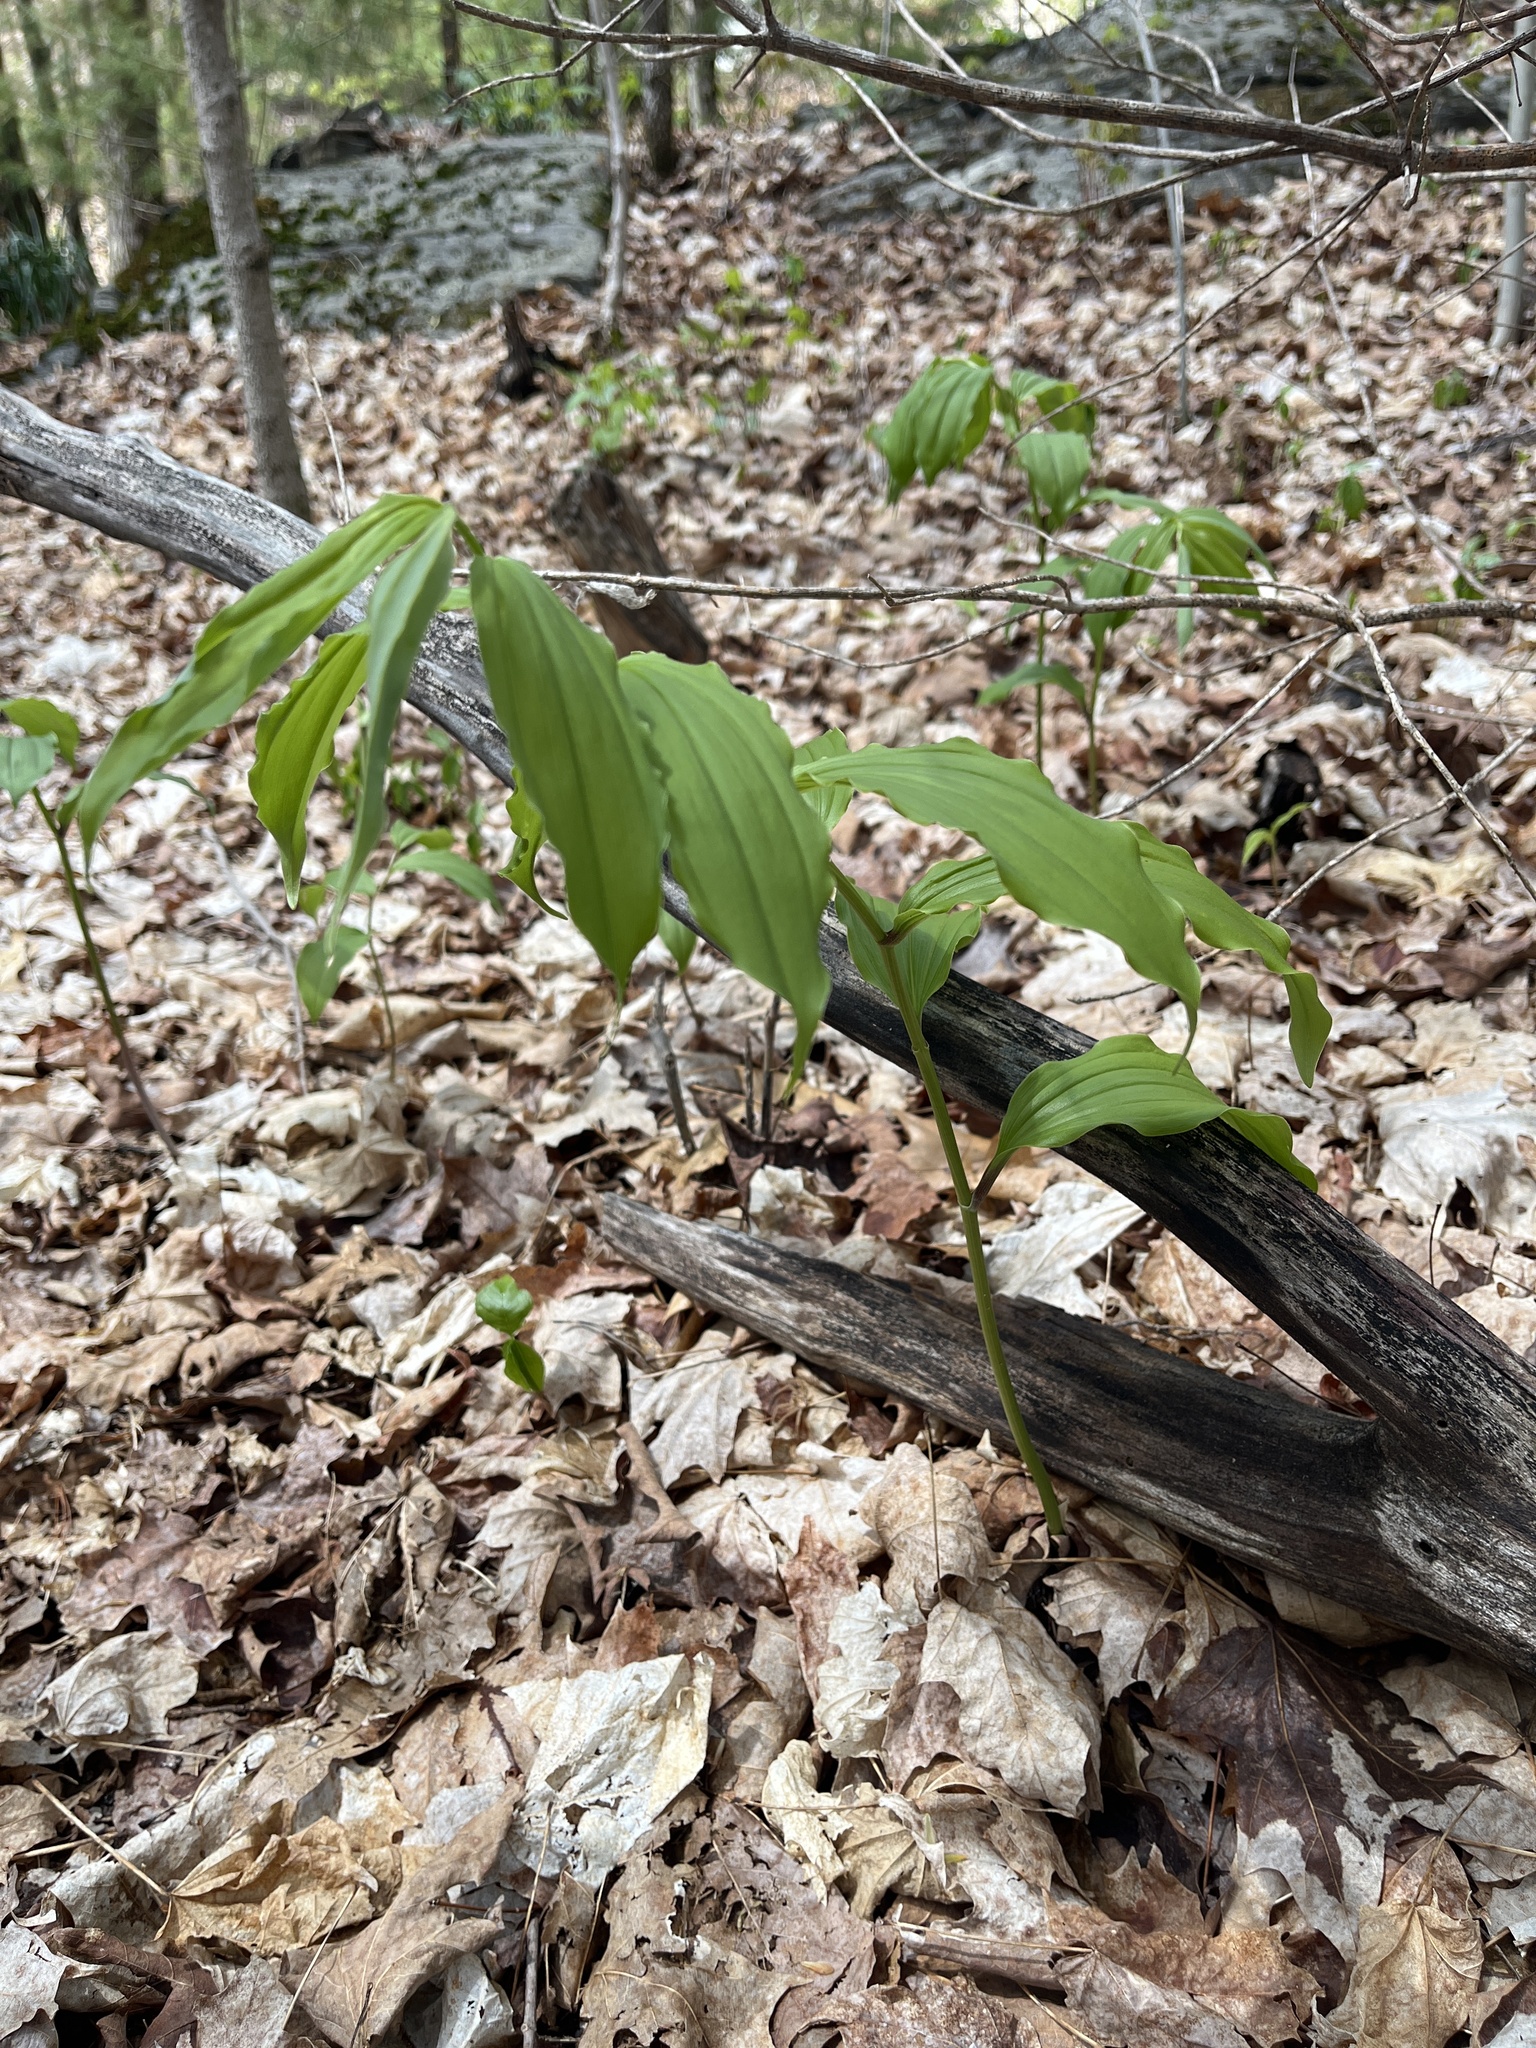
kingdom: Plantae
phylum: Tracheophyta
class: Liliopsida
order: Asparagales
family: Asparagaceae
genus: Maianthemum
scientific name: Maianthemum racemosum
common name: False spikenard
